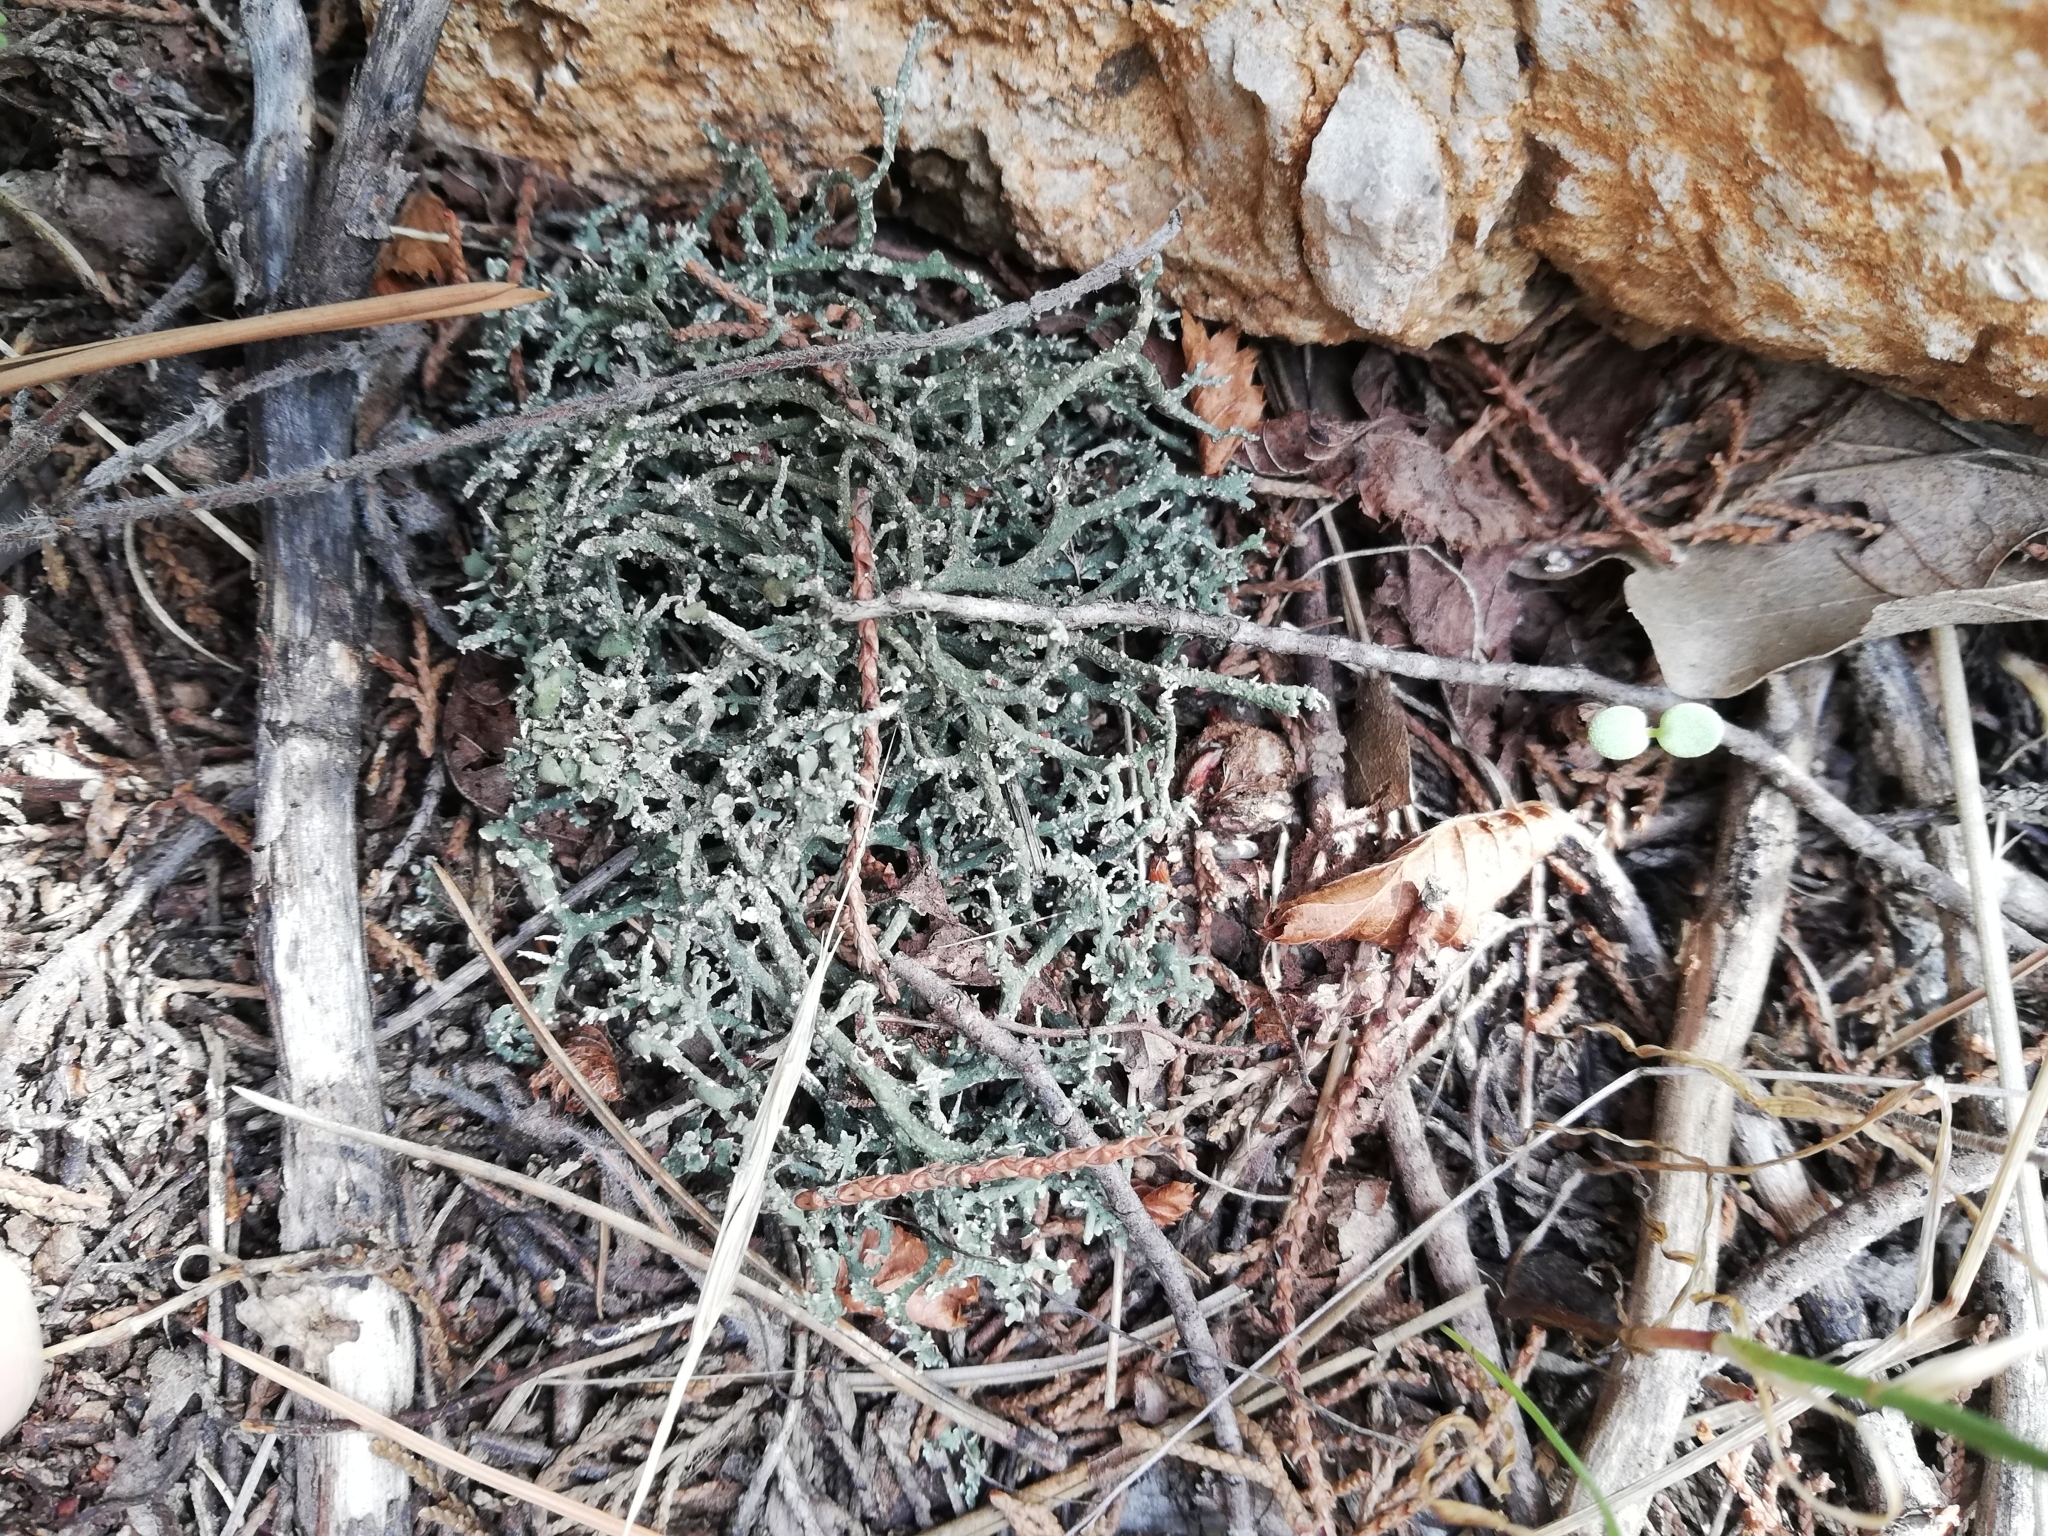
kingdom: Fungi
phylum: Ascomycota
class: Lecanoromycetes
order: Lecanorales
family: Cladoniaceae
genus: Cladonia
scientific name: Cladonia rangiformis
